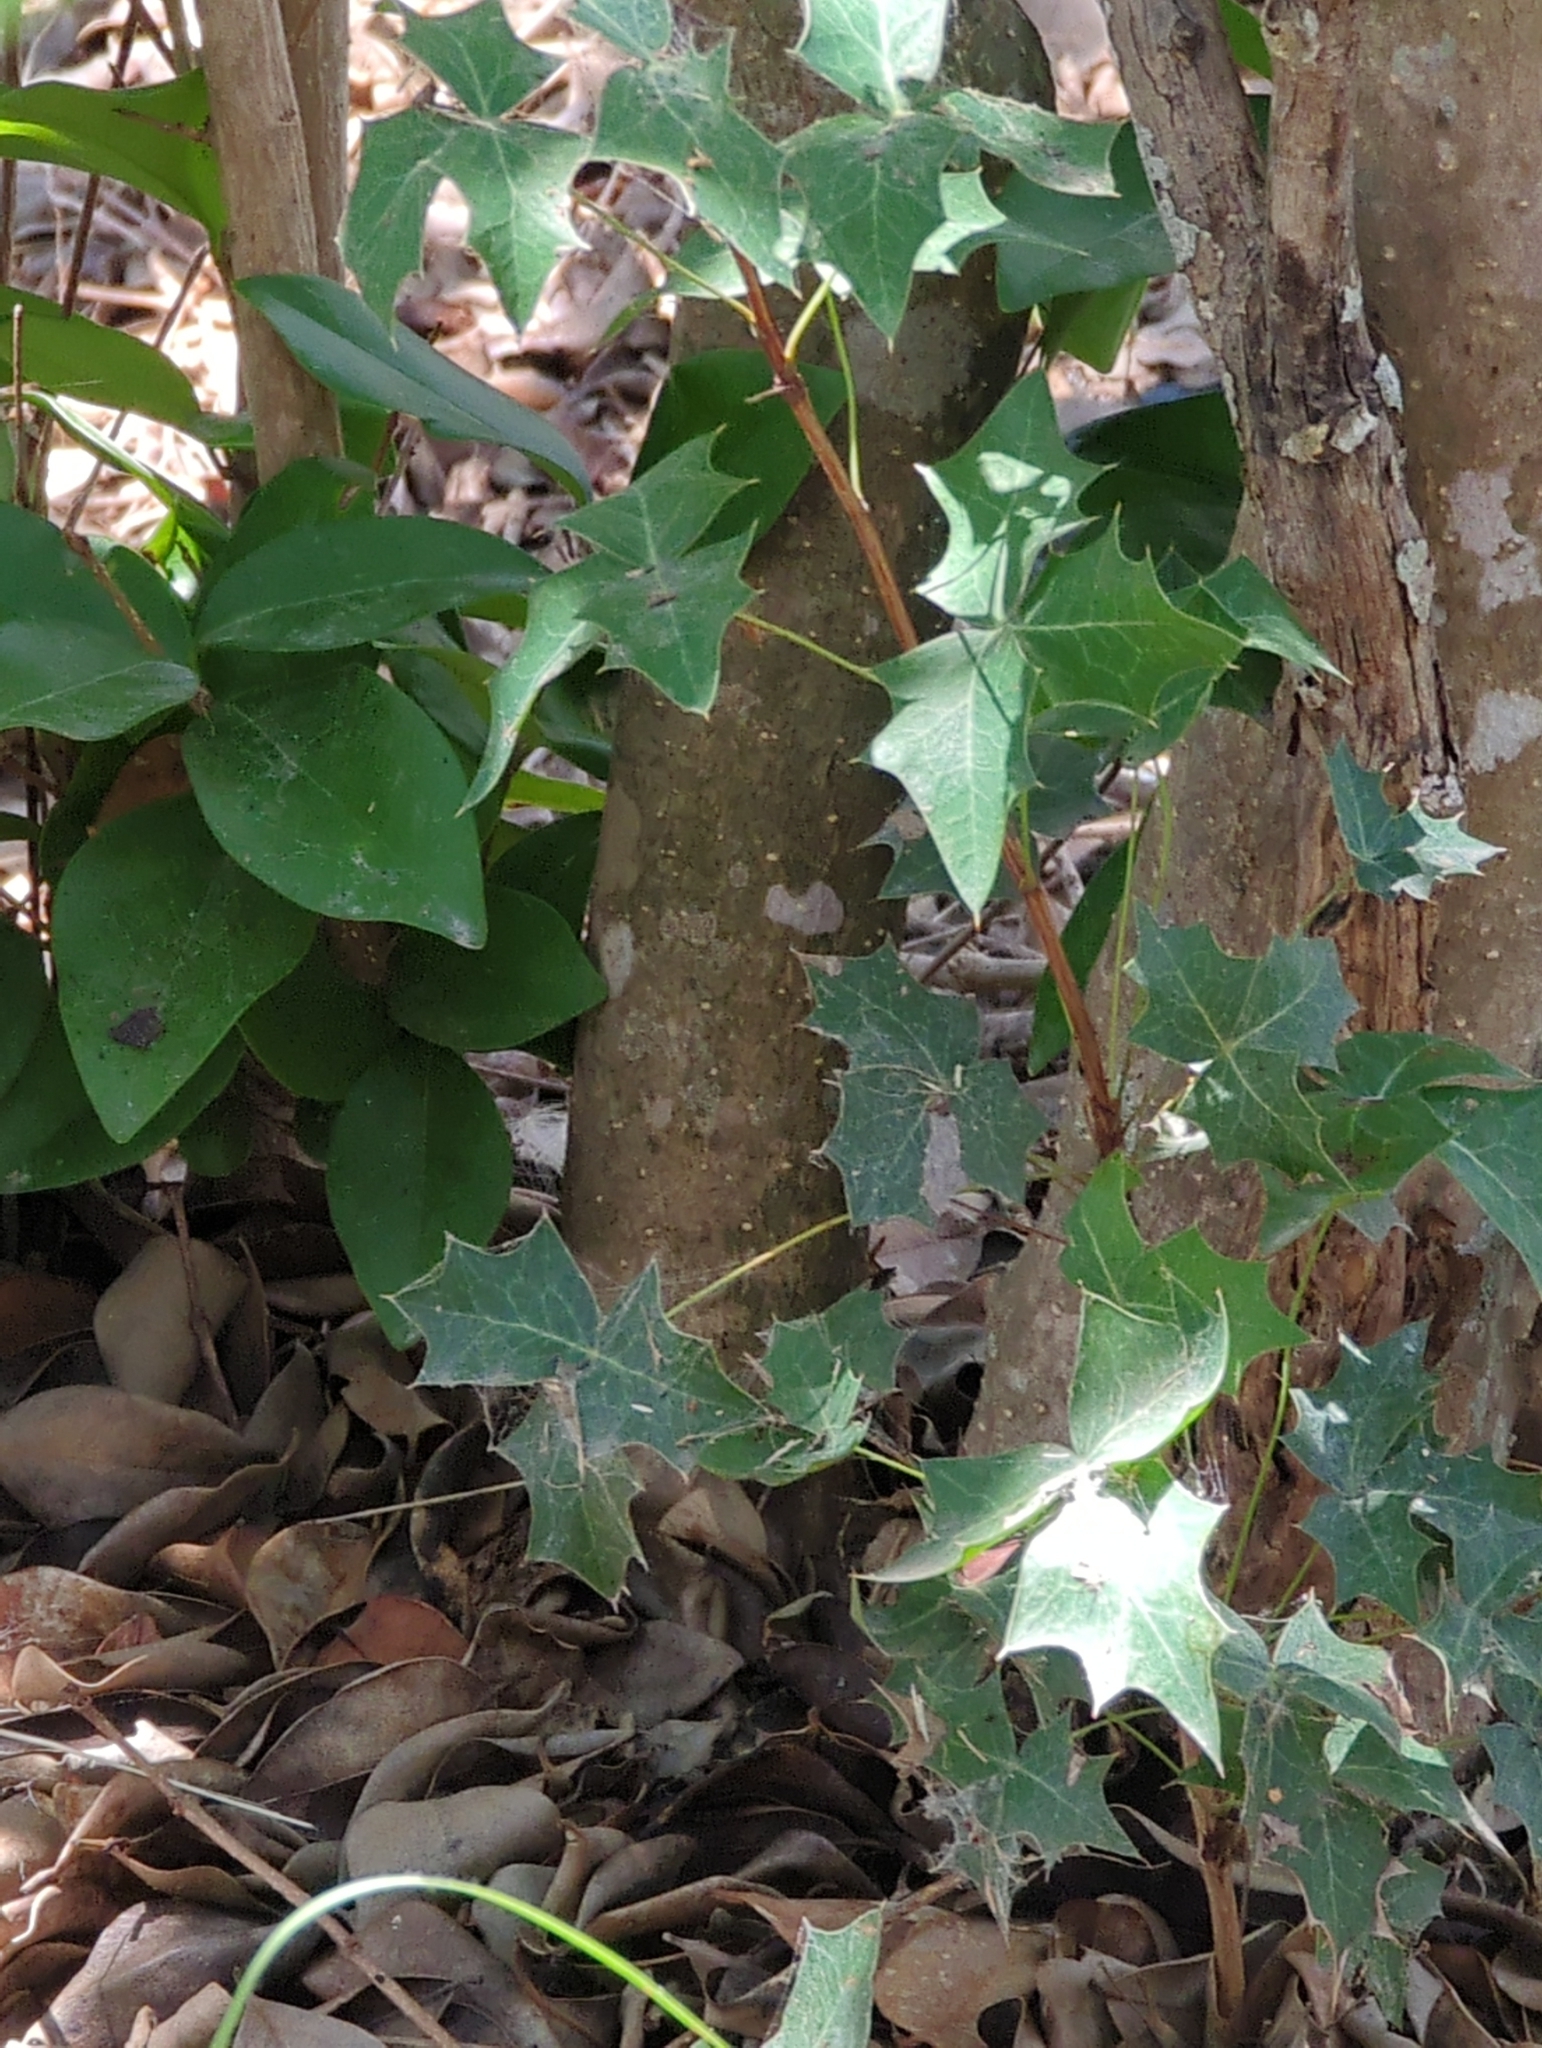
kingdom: Plantae
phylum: Tracheophyta
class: Magnoliopsida
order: Ranunculales
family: Berberidaceae
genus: Alloberberis
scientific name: Alloberberis trifoliolata
